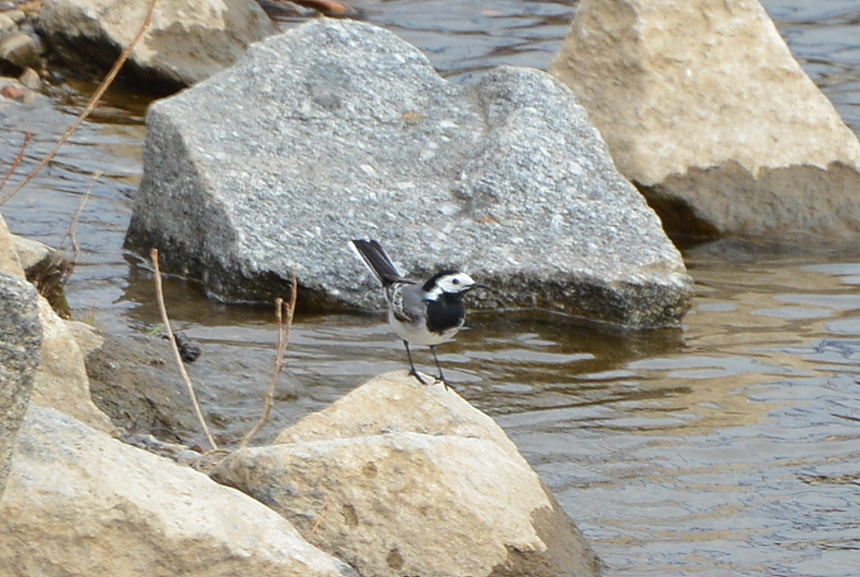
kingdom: Animalia
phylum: Chordata
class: Aves
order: Passeriformes
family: Motacillidae
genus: Motacilla
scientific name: Motacilla alba
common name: White wagtail
